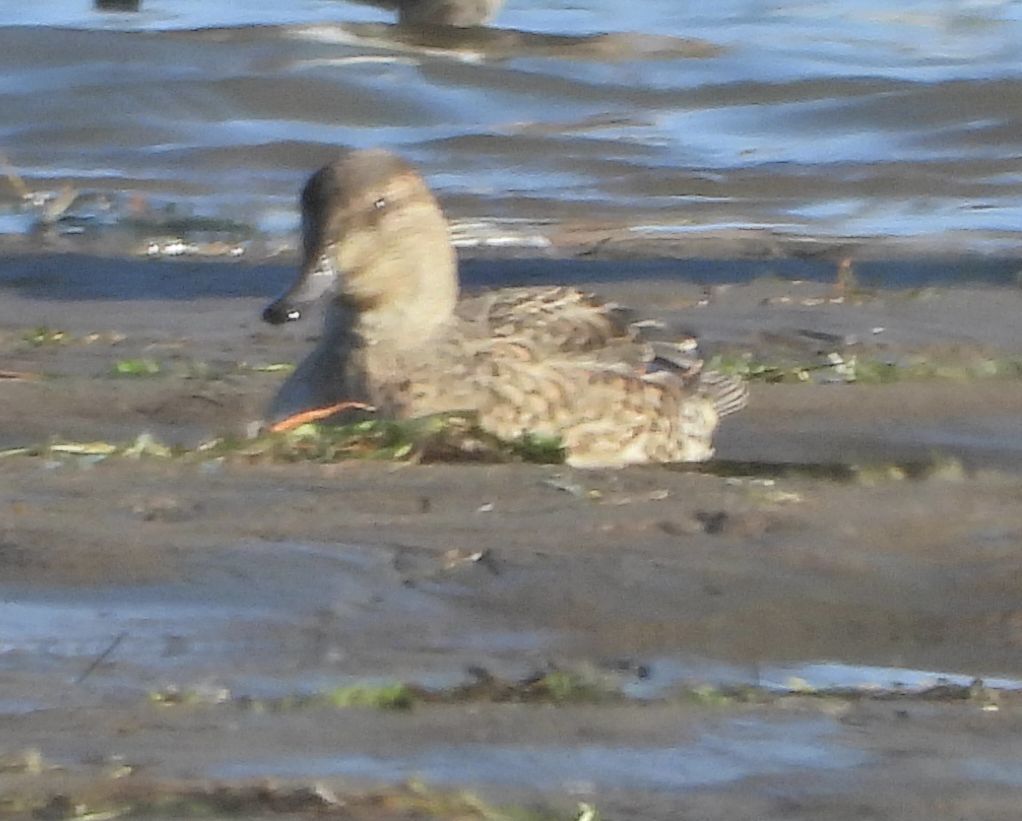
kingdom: Animalia
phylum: Chordata
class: Aves
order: Anseriformes
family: Anatidae
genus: Anas
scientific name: Anas crecca
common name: Eurasian teal
